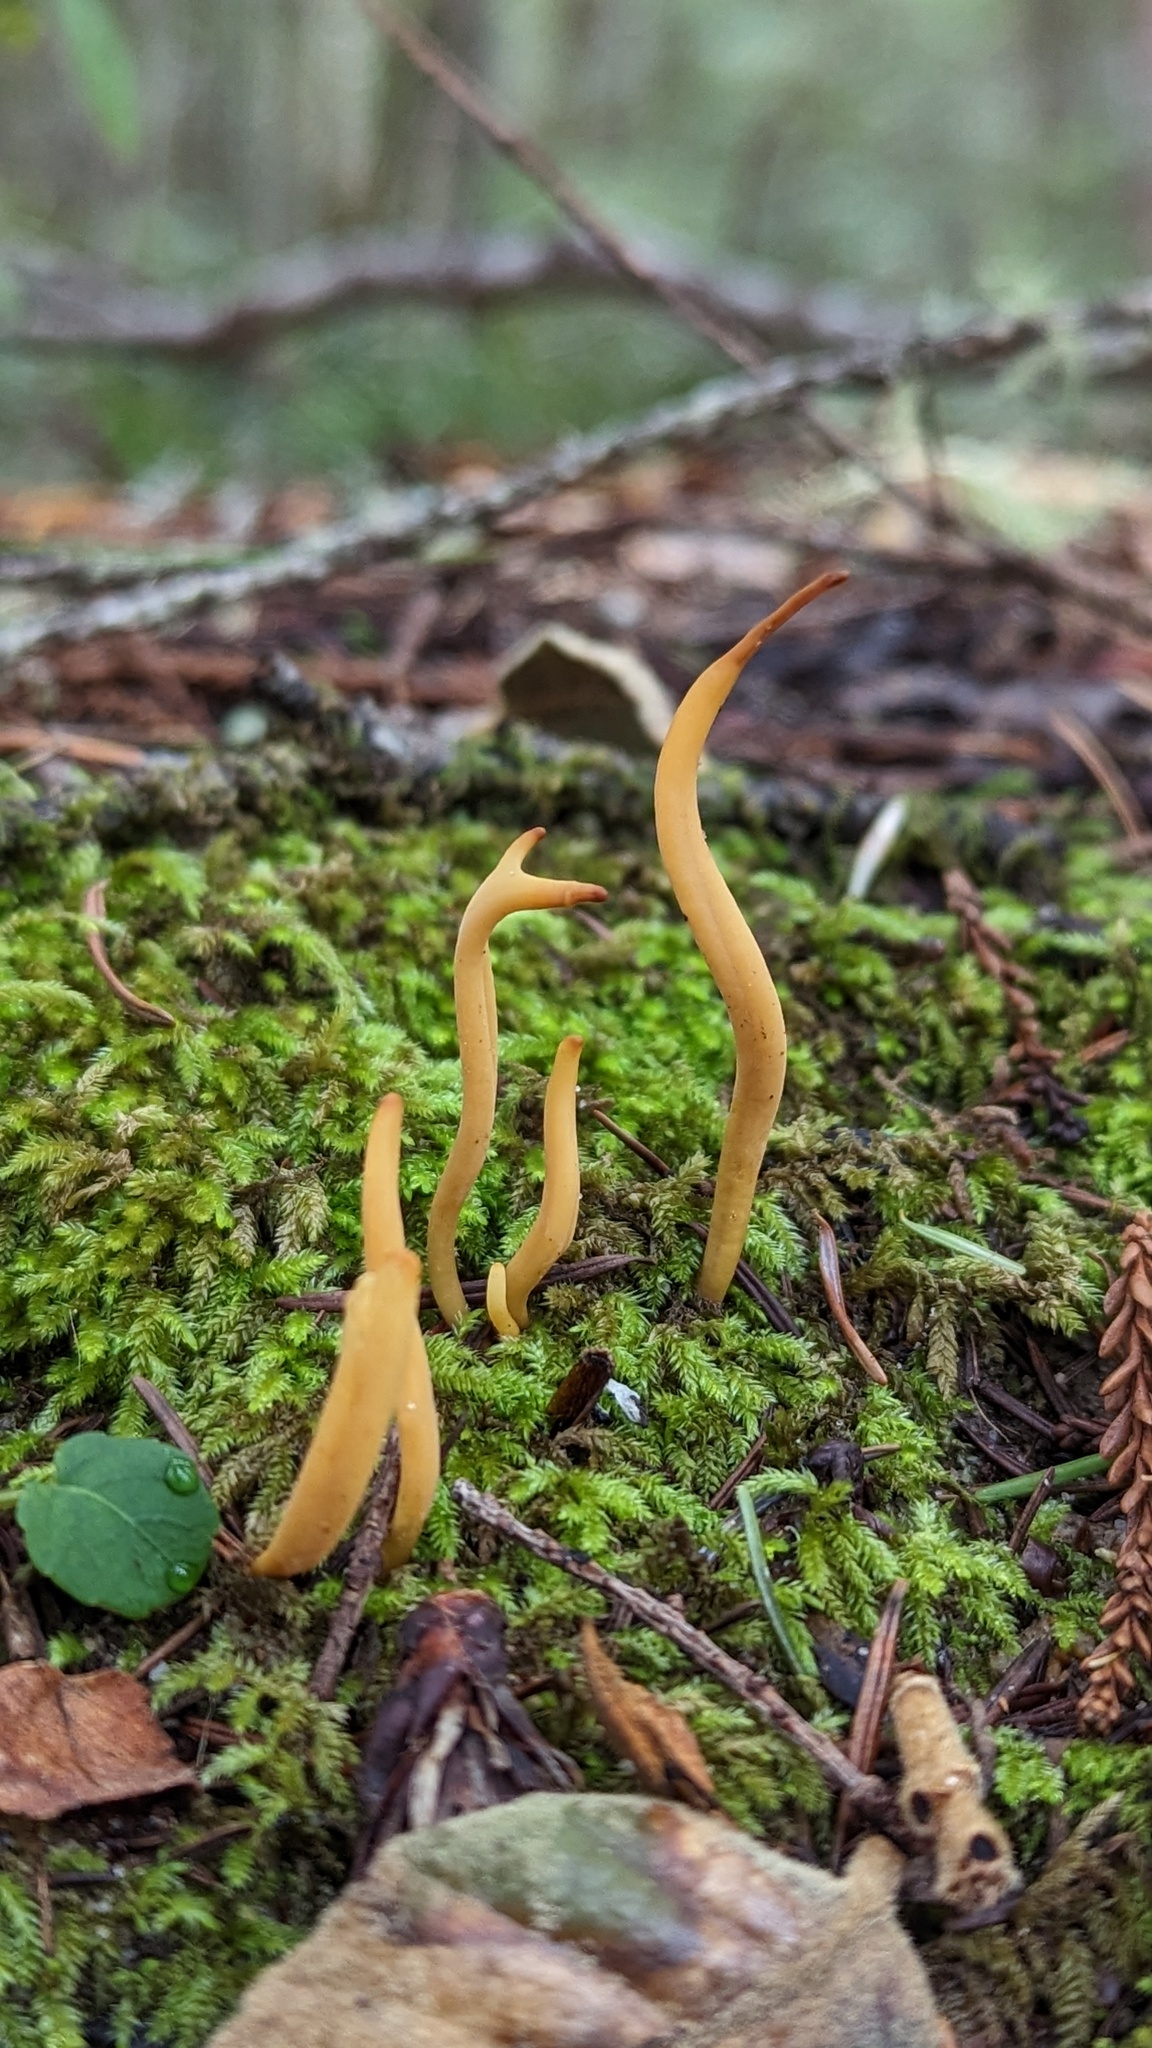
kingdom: Fungi
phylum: Basidiomycota
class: Dacrymycetes
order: Dacrymycetales
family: Dacrymycetaceae
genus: Calocera
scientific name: Calocera cornea
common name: Small stagshorn
